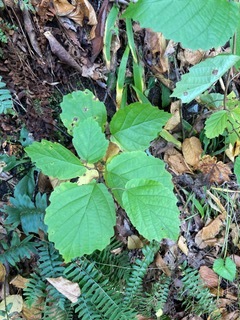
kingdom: Plantae
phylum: Tracheophyta
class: Magnoliopsida
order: Saxifragales
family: Hamamelidaceae
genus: Hamamelis
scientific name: Hamamelis virginiana
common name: Witch-hazel
